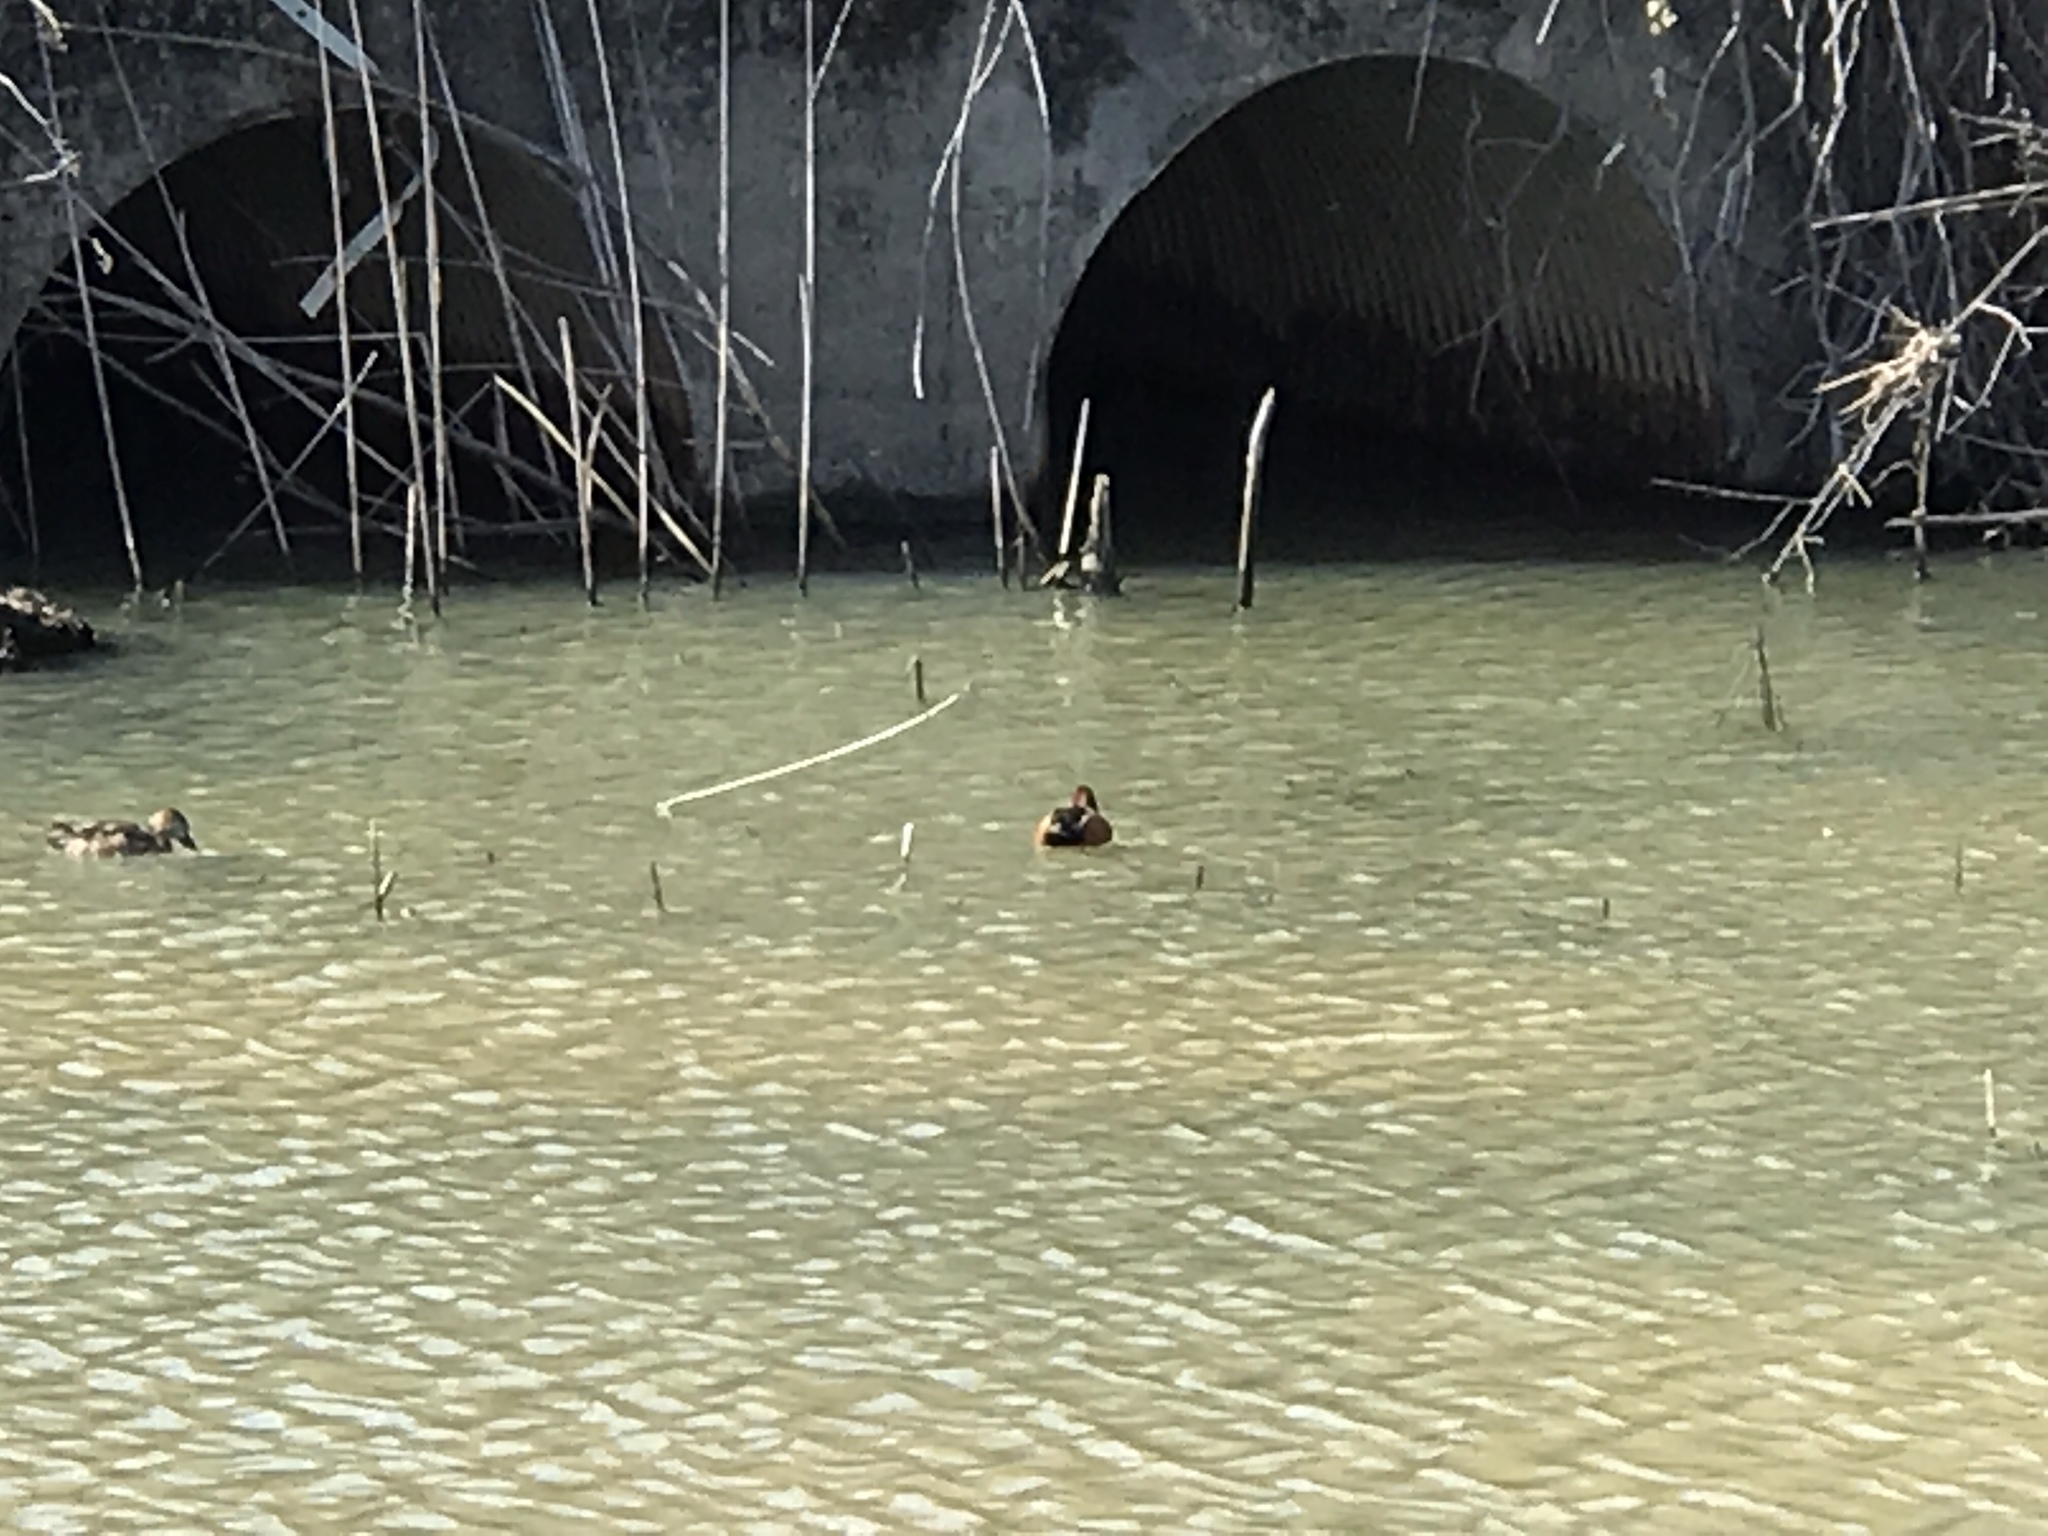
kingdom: Animalia
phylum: Chordata
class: Aves
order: Anseriformes
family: Anatidae
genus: Spatula
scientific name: Spatula cyanoptera
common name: Cinnamon teal
